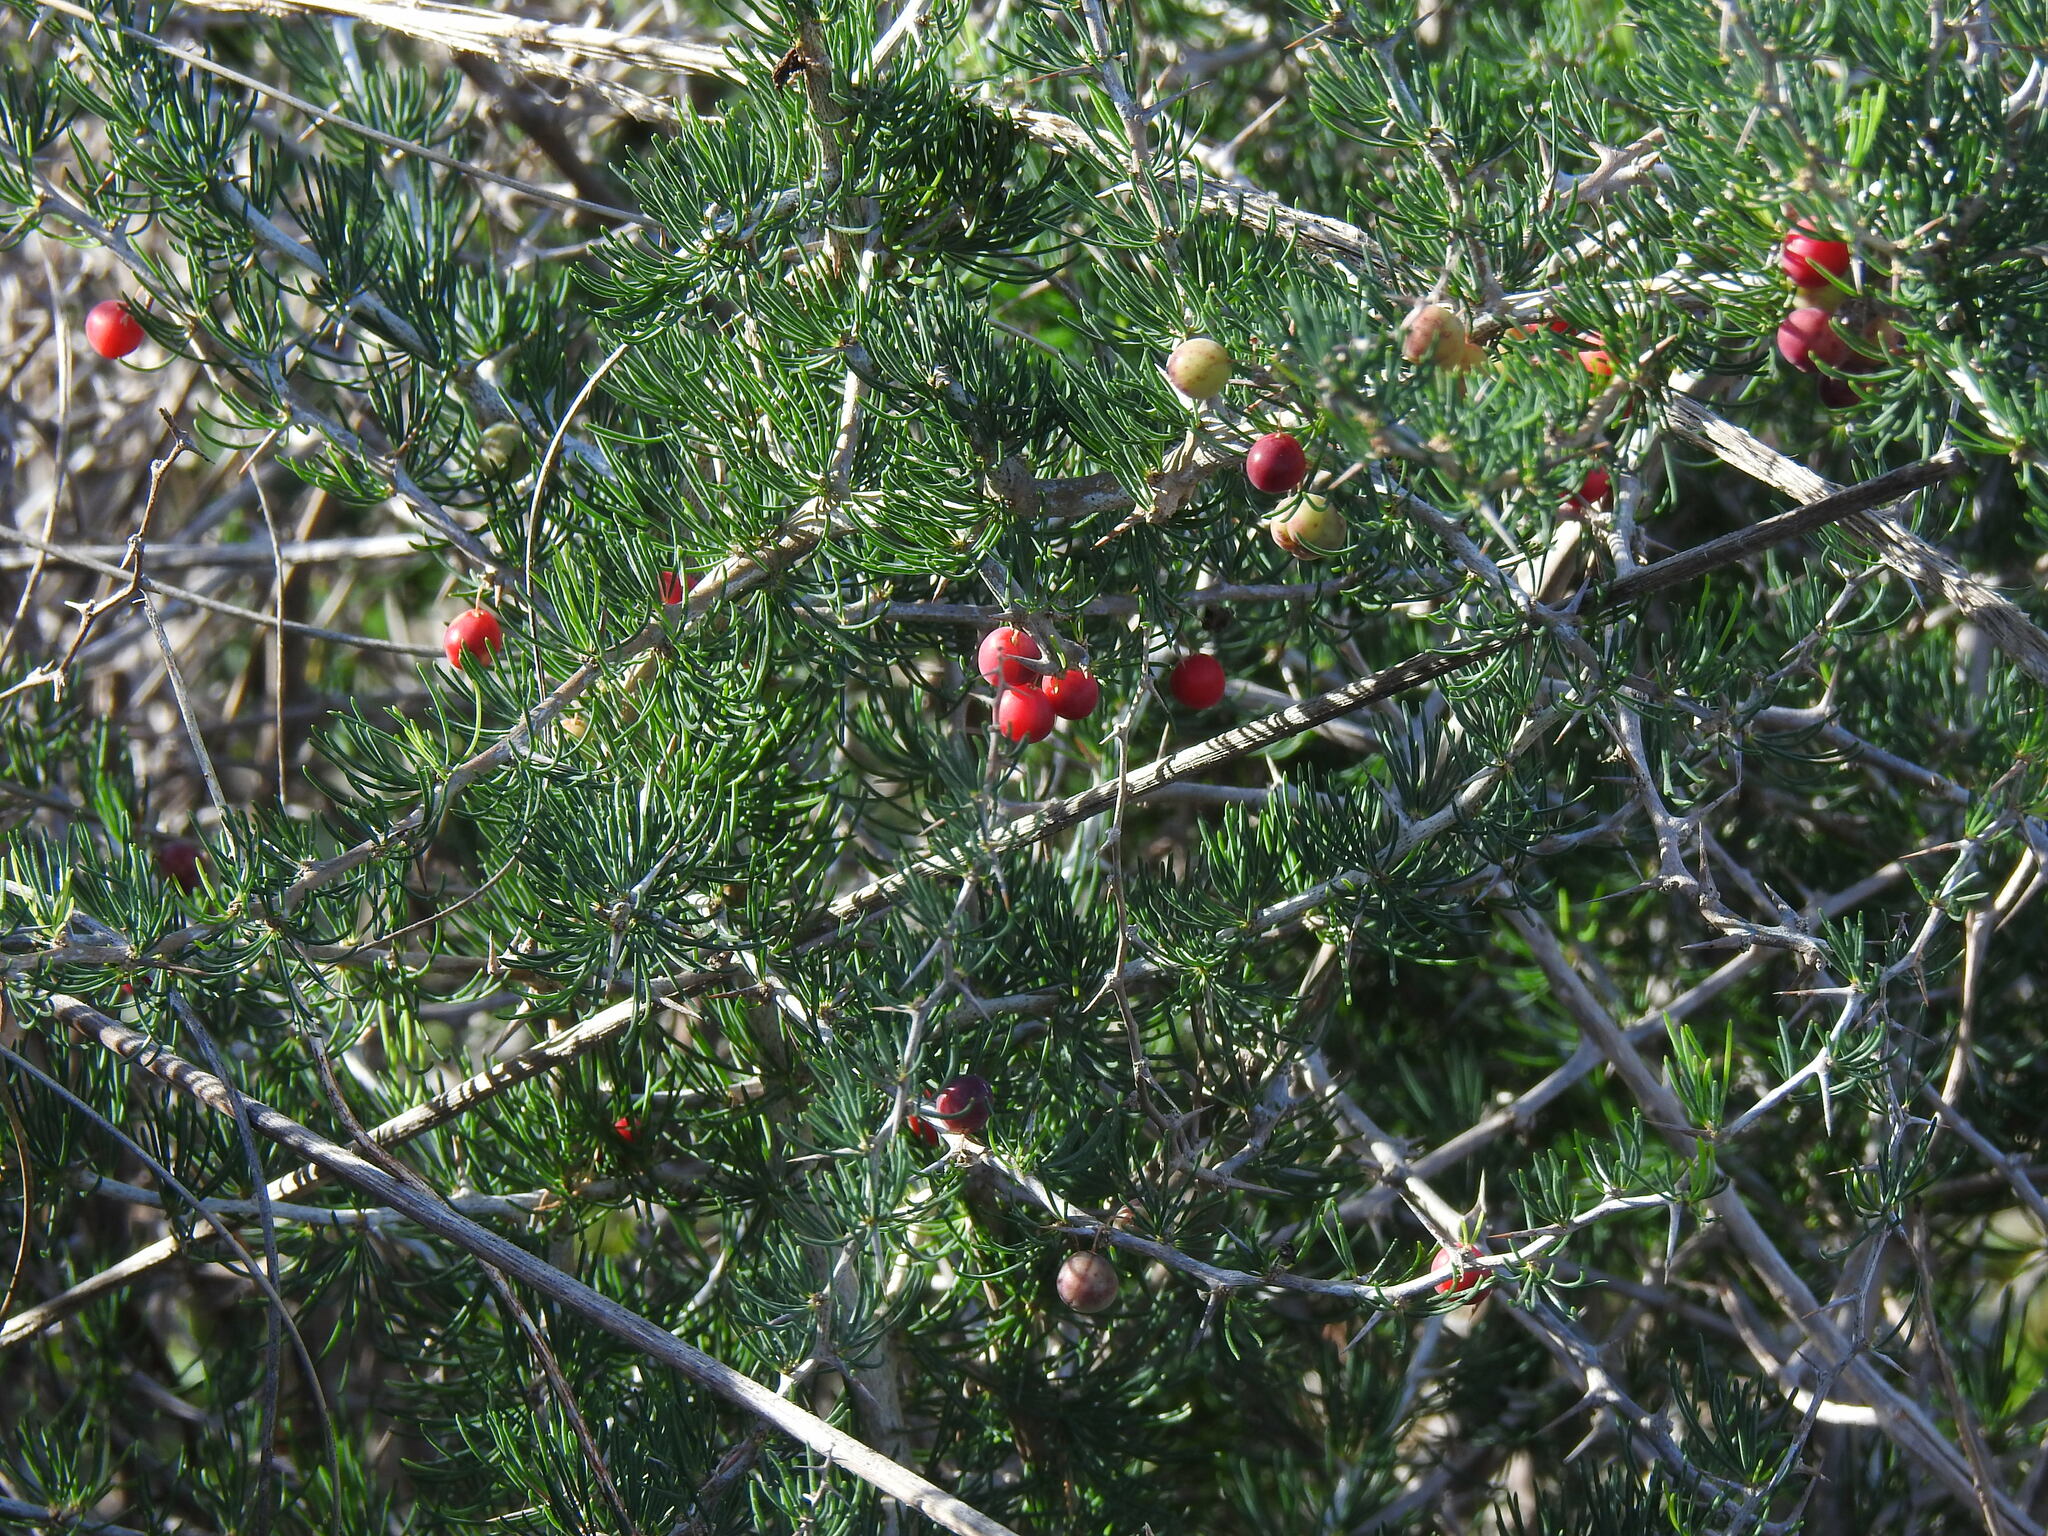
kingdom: Plantae
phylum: Tracheophyta
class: Liliopsida
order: Asparagales
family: Asparagaceae
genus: Asparagus
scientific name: Asparagus albus
